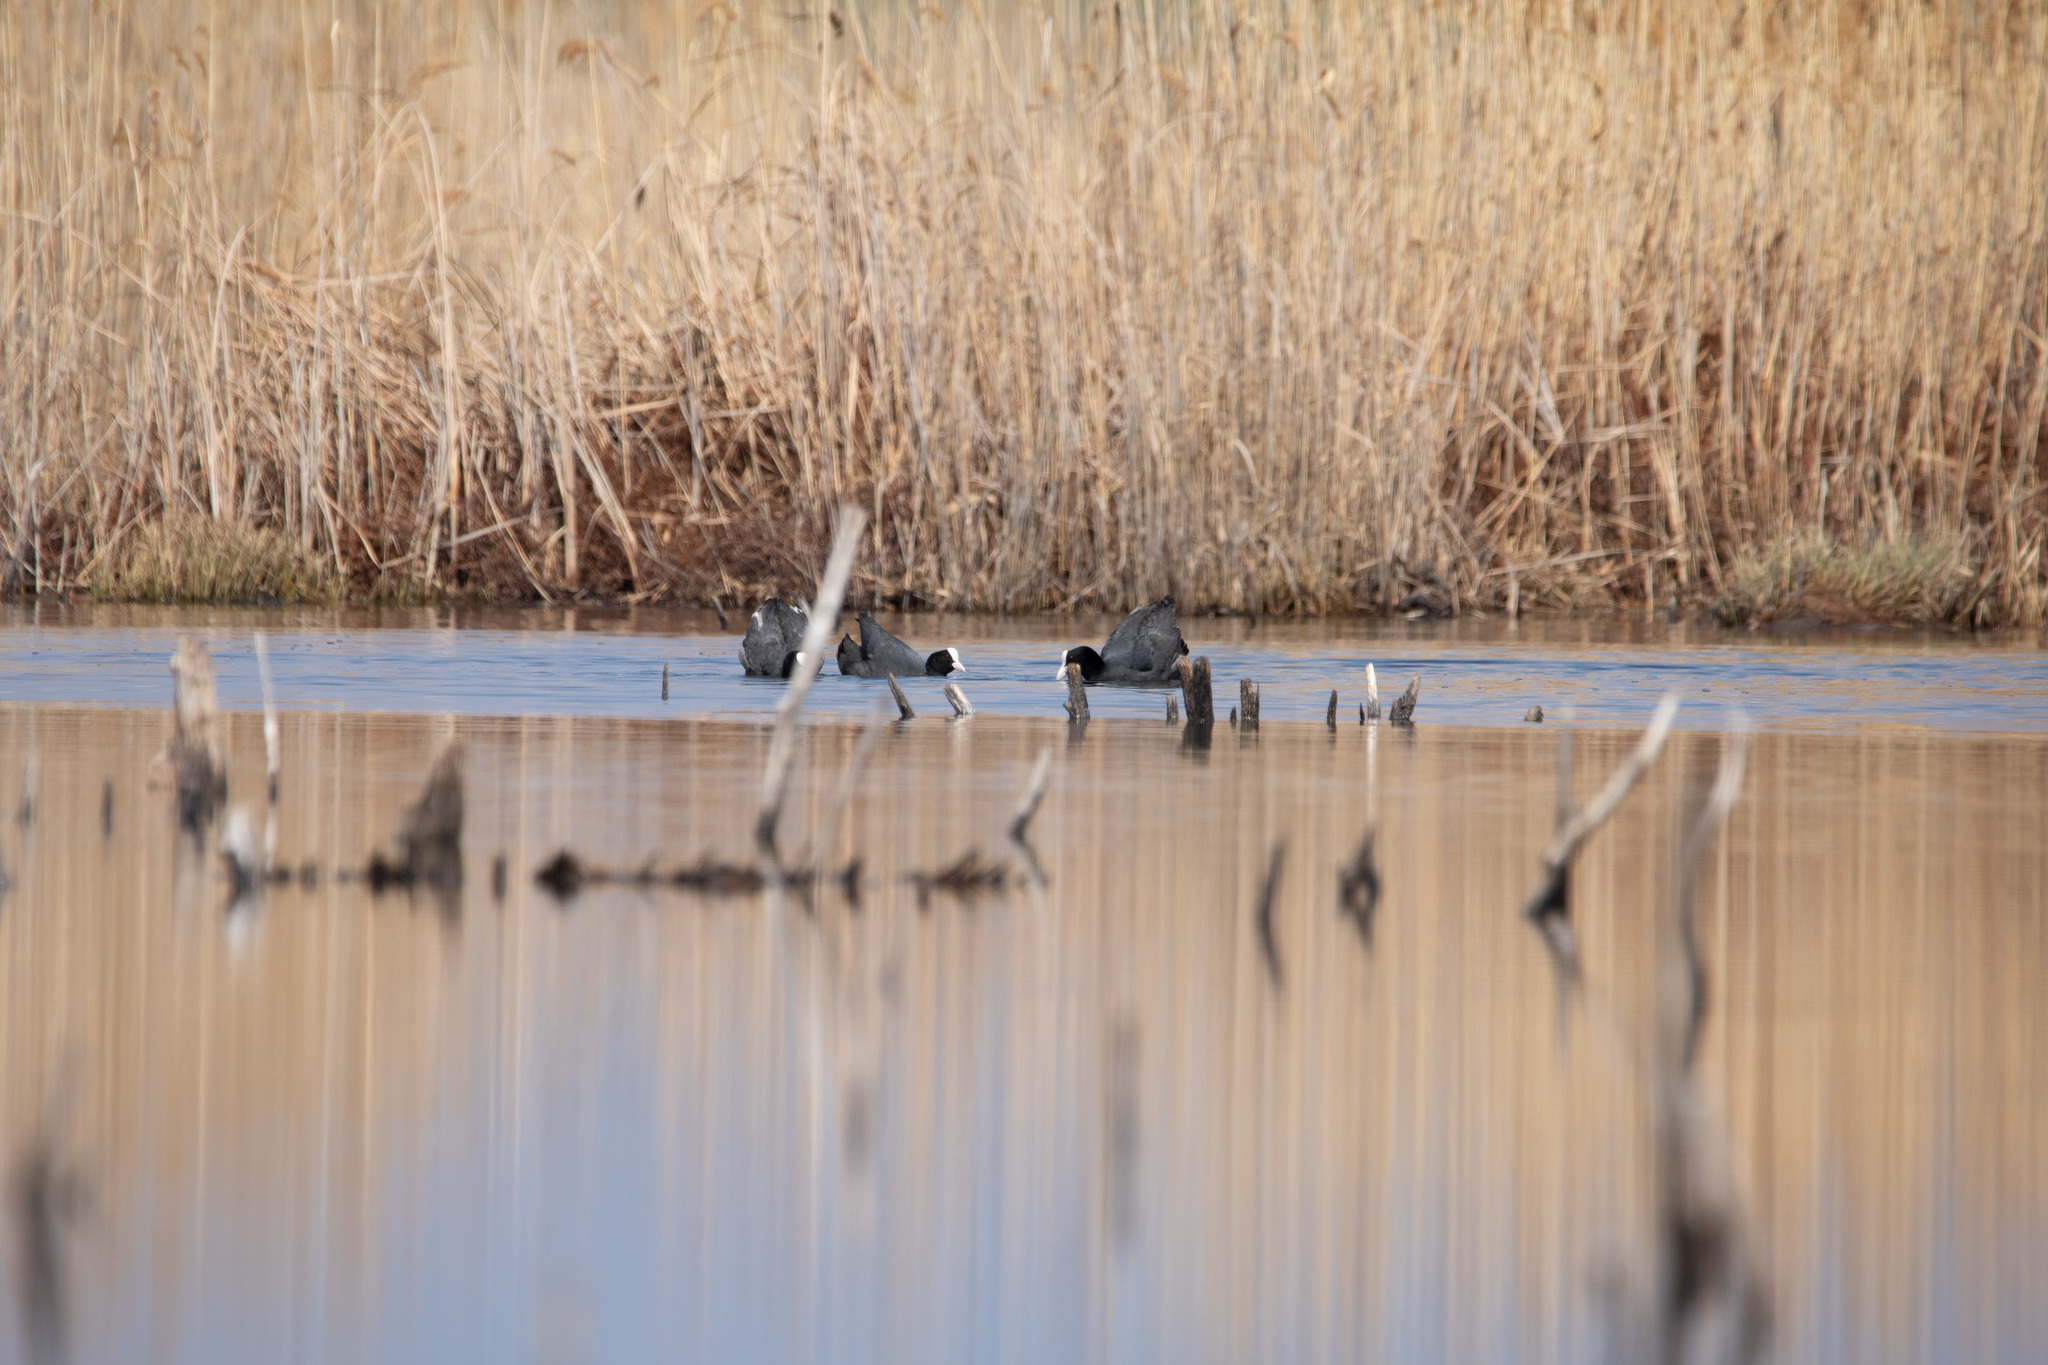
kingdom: Animalia
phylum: Chordata
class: Aves
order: Gruiformes
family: Rallidae
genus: Fulica
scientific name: Fulica atra
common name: Eurasian coot
